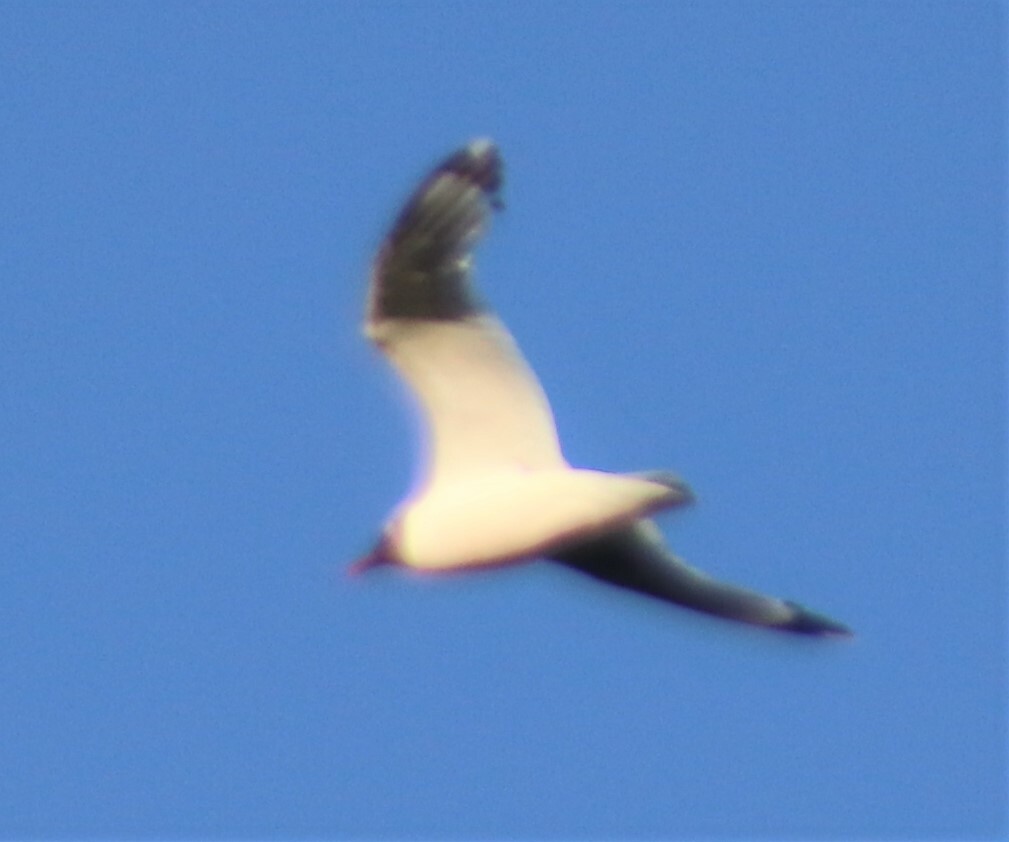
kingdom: Animalia
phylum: Chordata
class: Aves
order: Charadriiformes
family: Laridae
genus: Leucophaeus
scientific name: Leucophaeus pipixcan
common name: Franklin's gull
